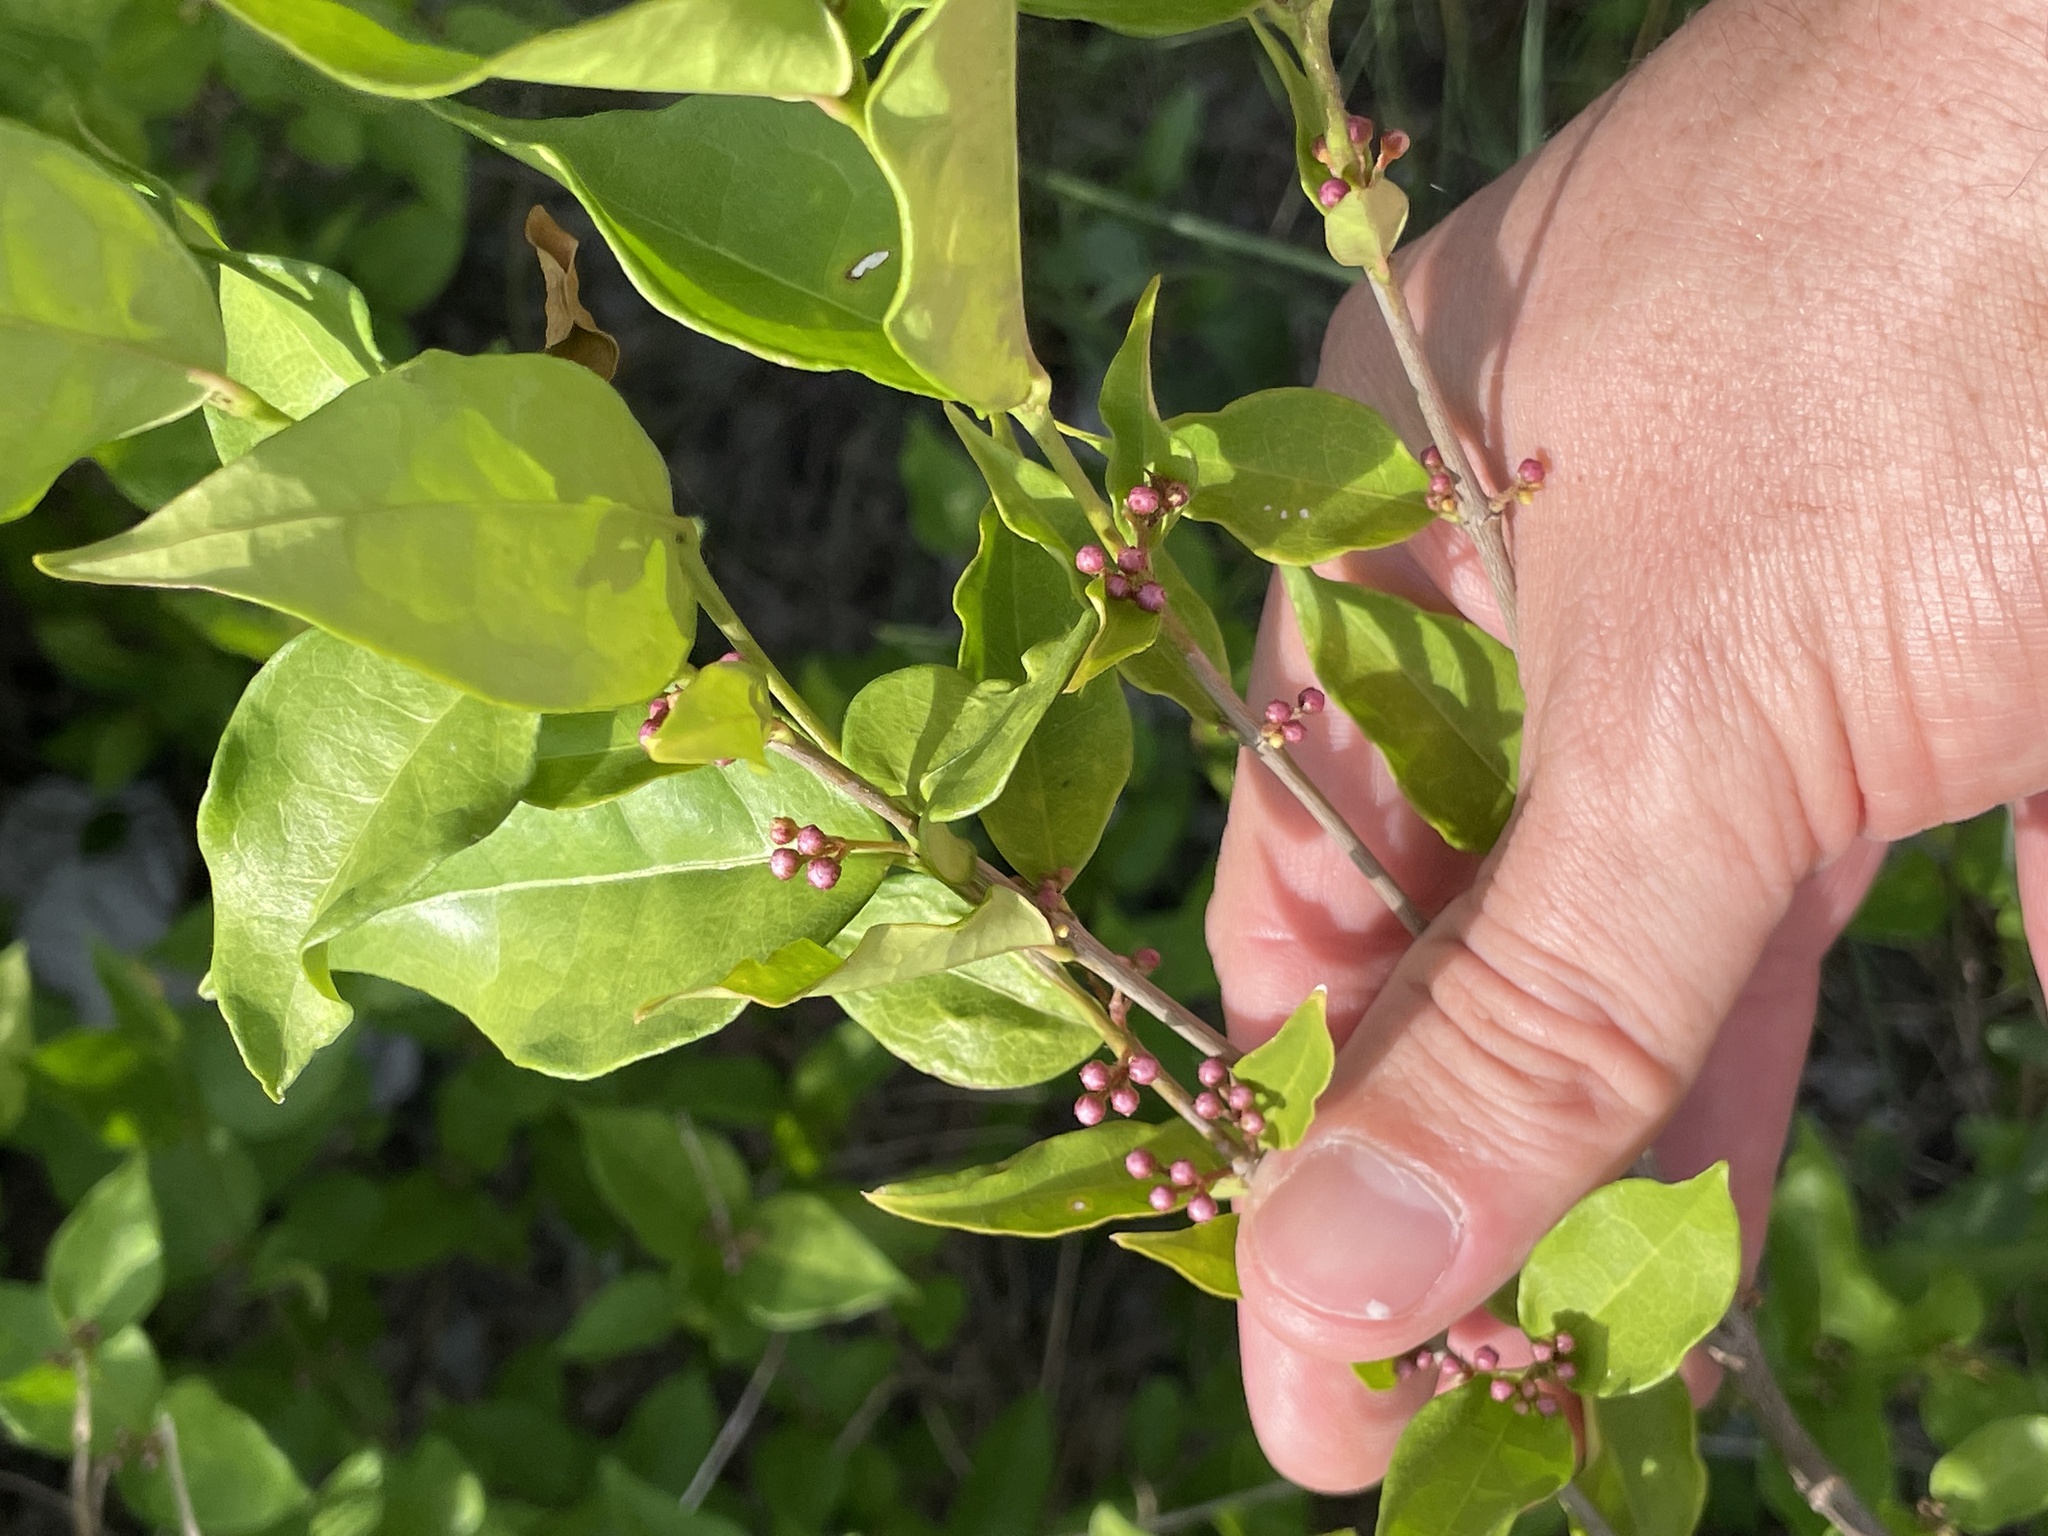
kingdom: Plantae
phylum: Tracheophyta
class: Magnoliopsida
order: Malpighiales
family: Malpighiaceae
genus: Malpighia
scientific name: Malpighia glabra
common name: Barbados cherry
